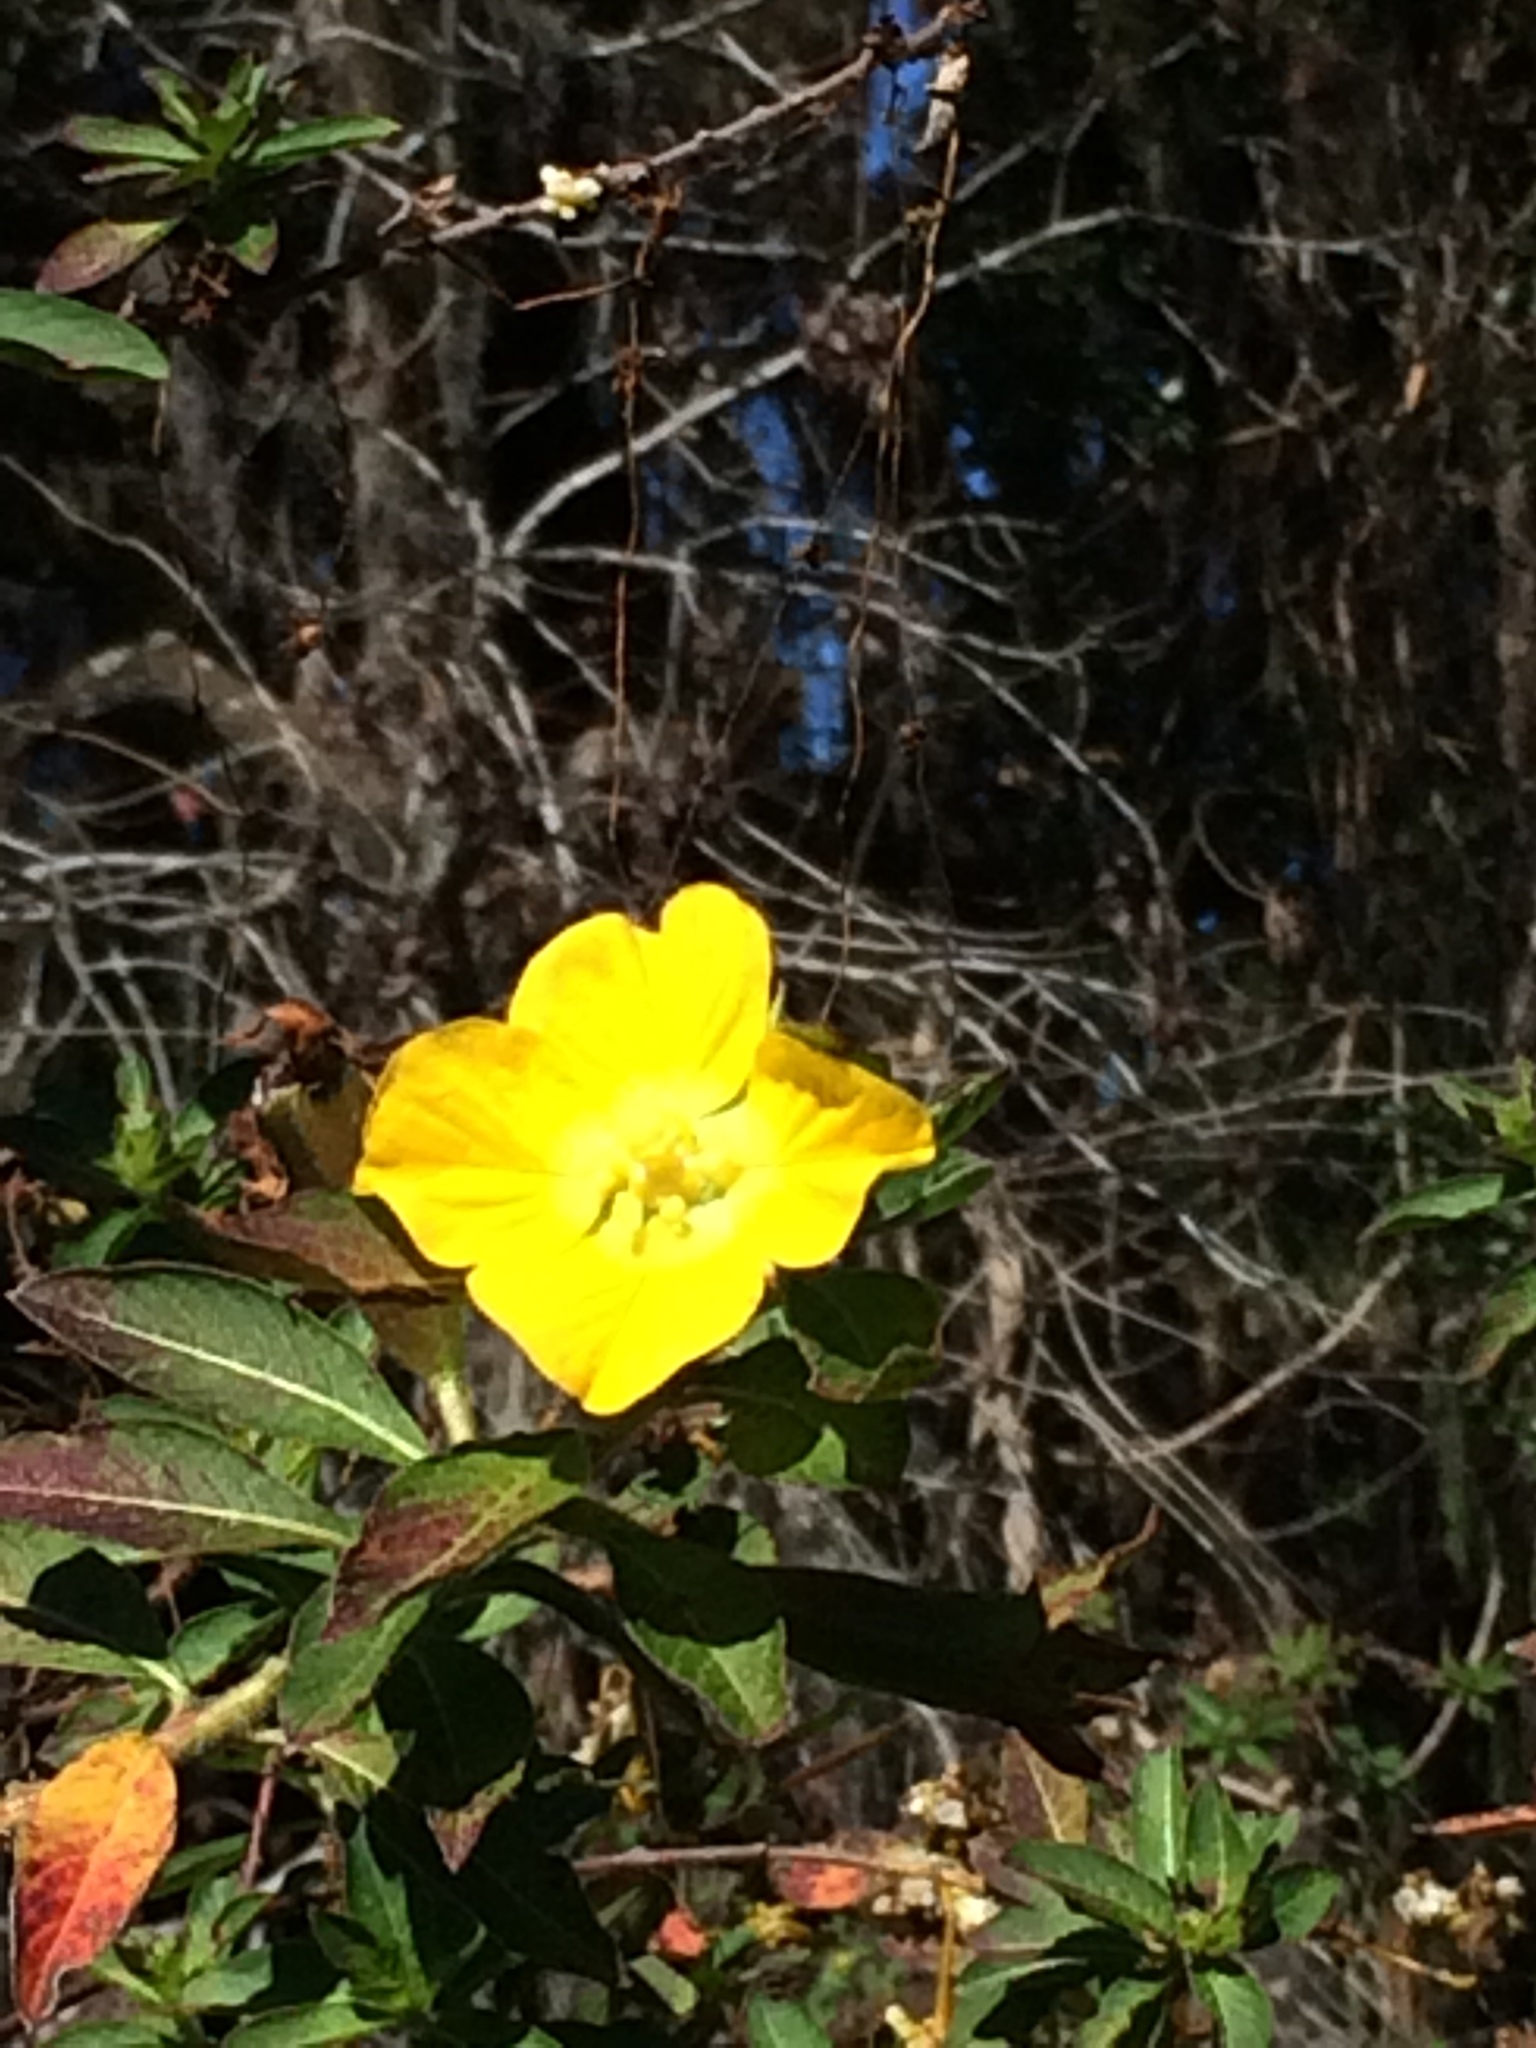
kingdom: Plantae
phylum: Tracheophyta
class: Magnoliopsida
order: Myrtales
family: Onagraceae
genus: Ludwigia
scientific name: Ludwigia peruviana
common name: Peruvian primrose-willow
